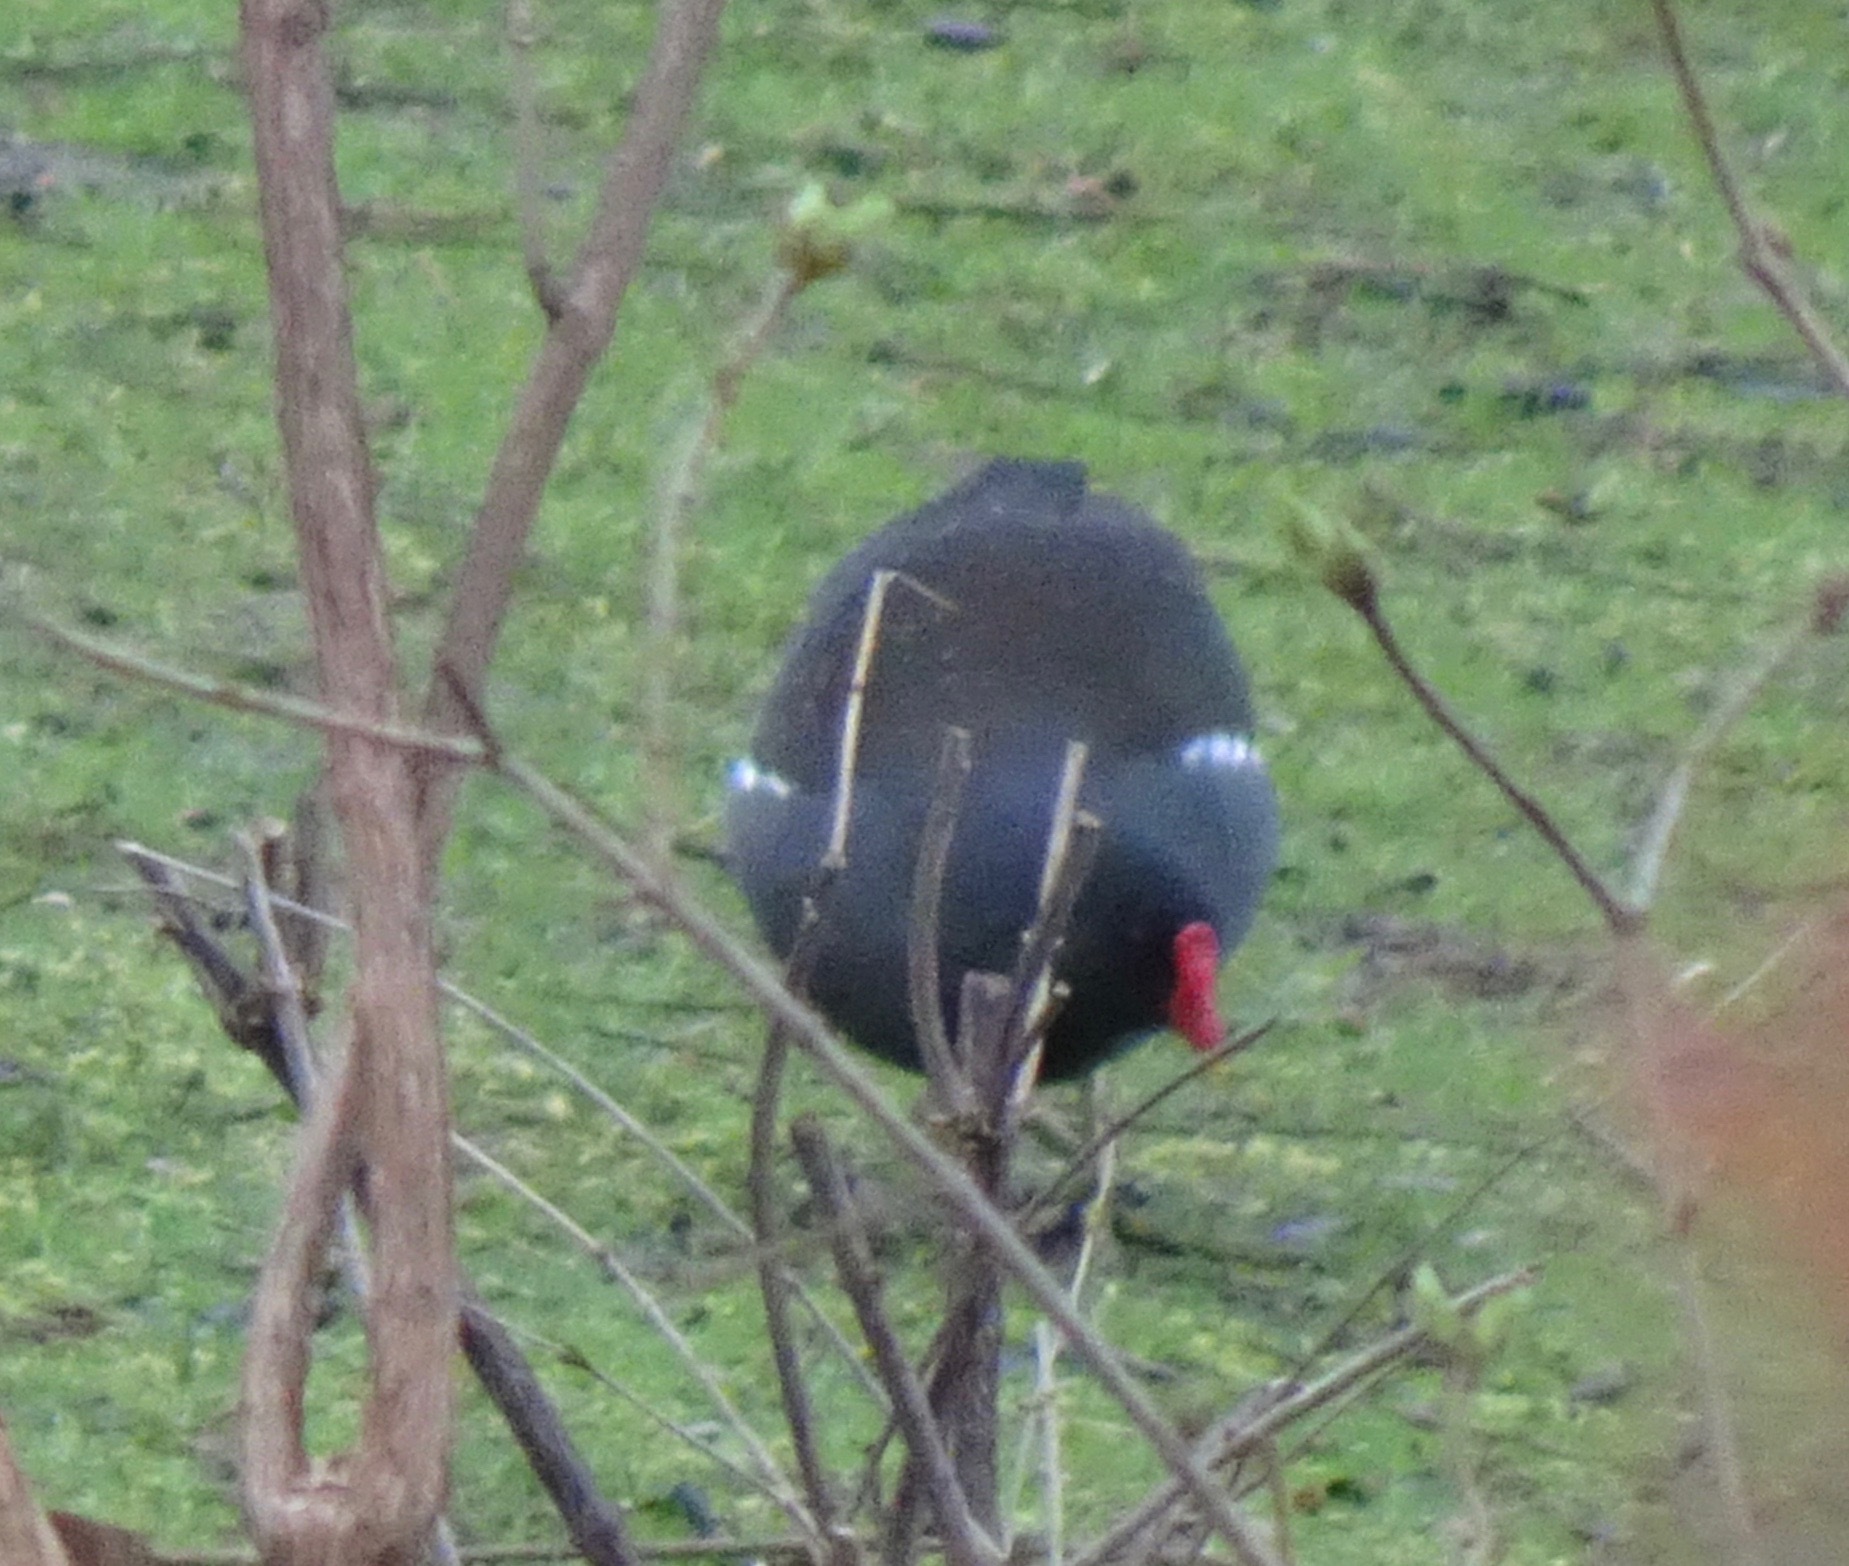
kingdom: Animalia
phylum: Chordata
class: Aves
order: Gruiformes
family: Rallidae
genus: Gallinula
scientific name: Gallinula chloropus
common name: Common moorhen
